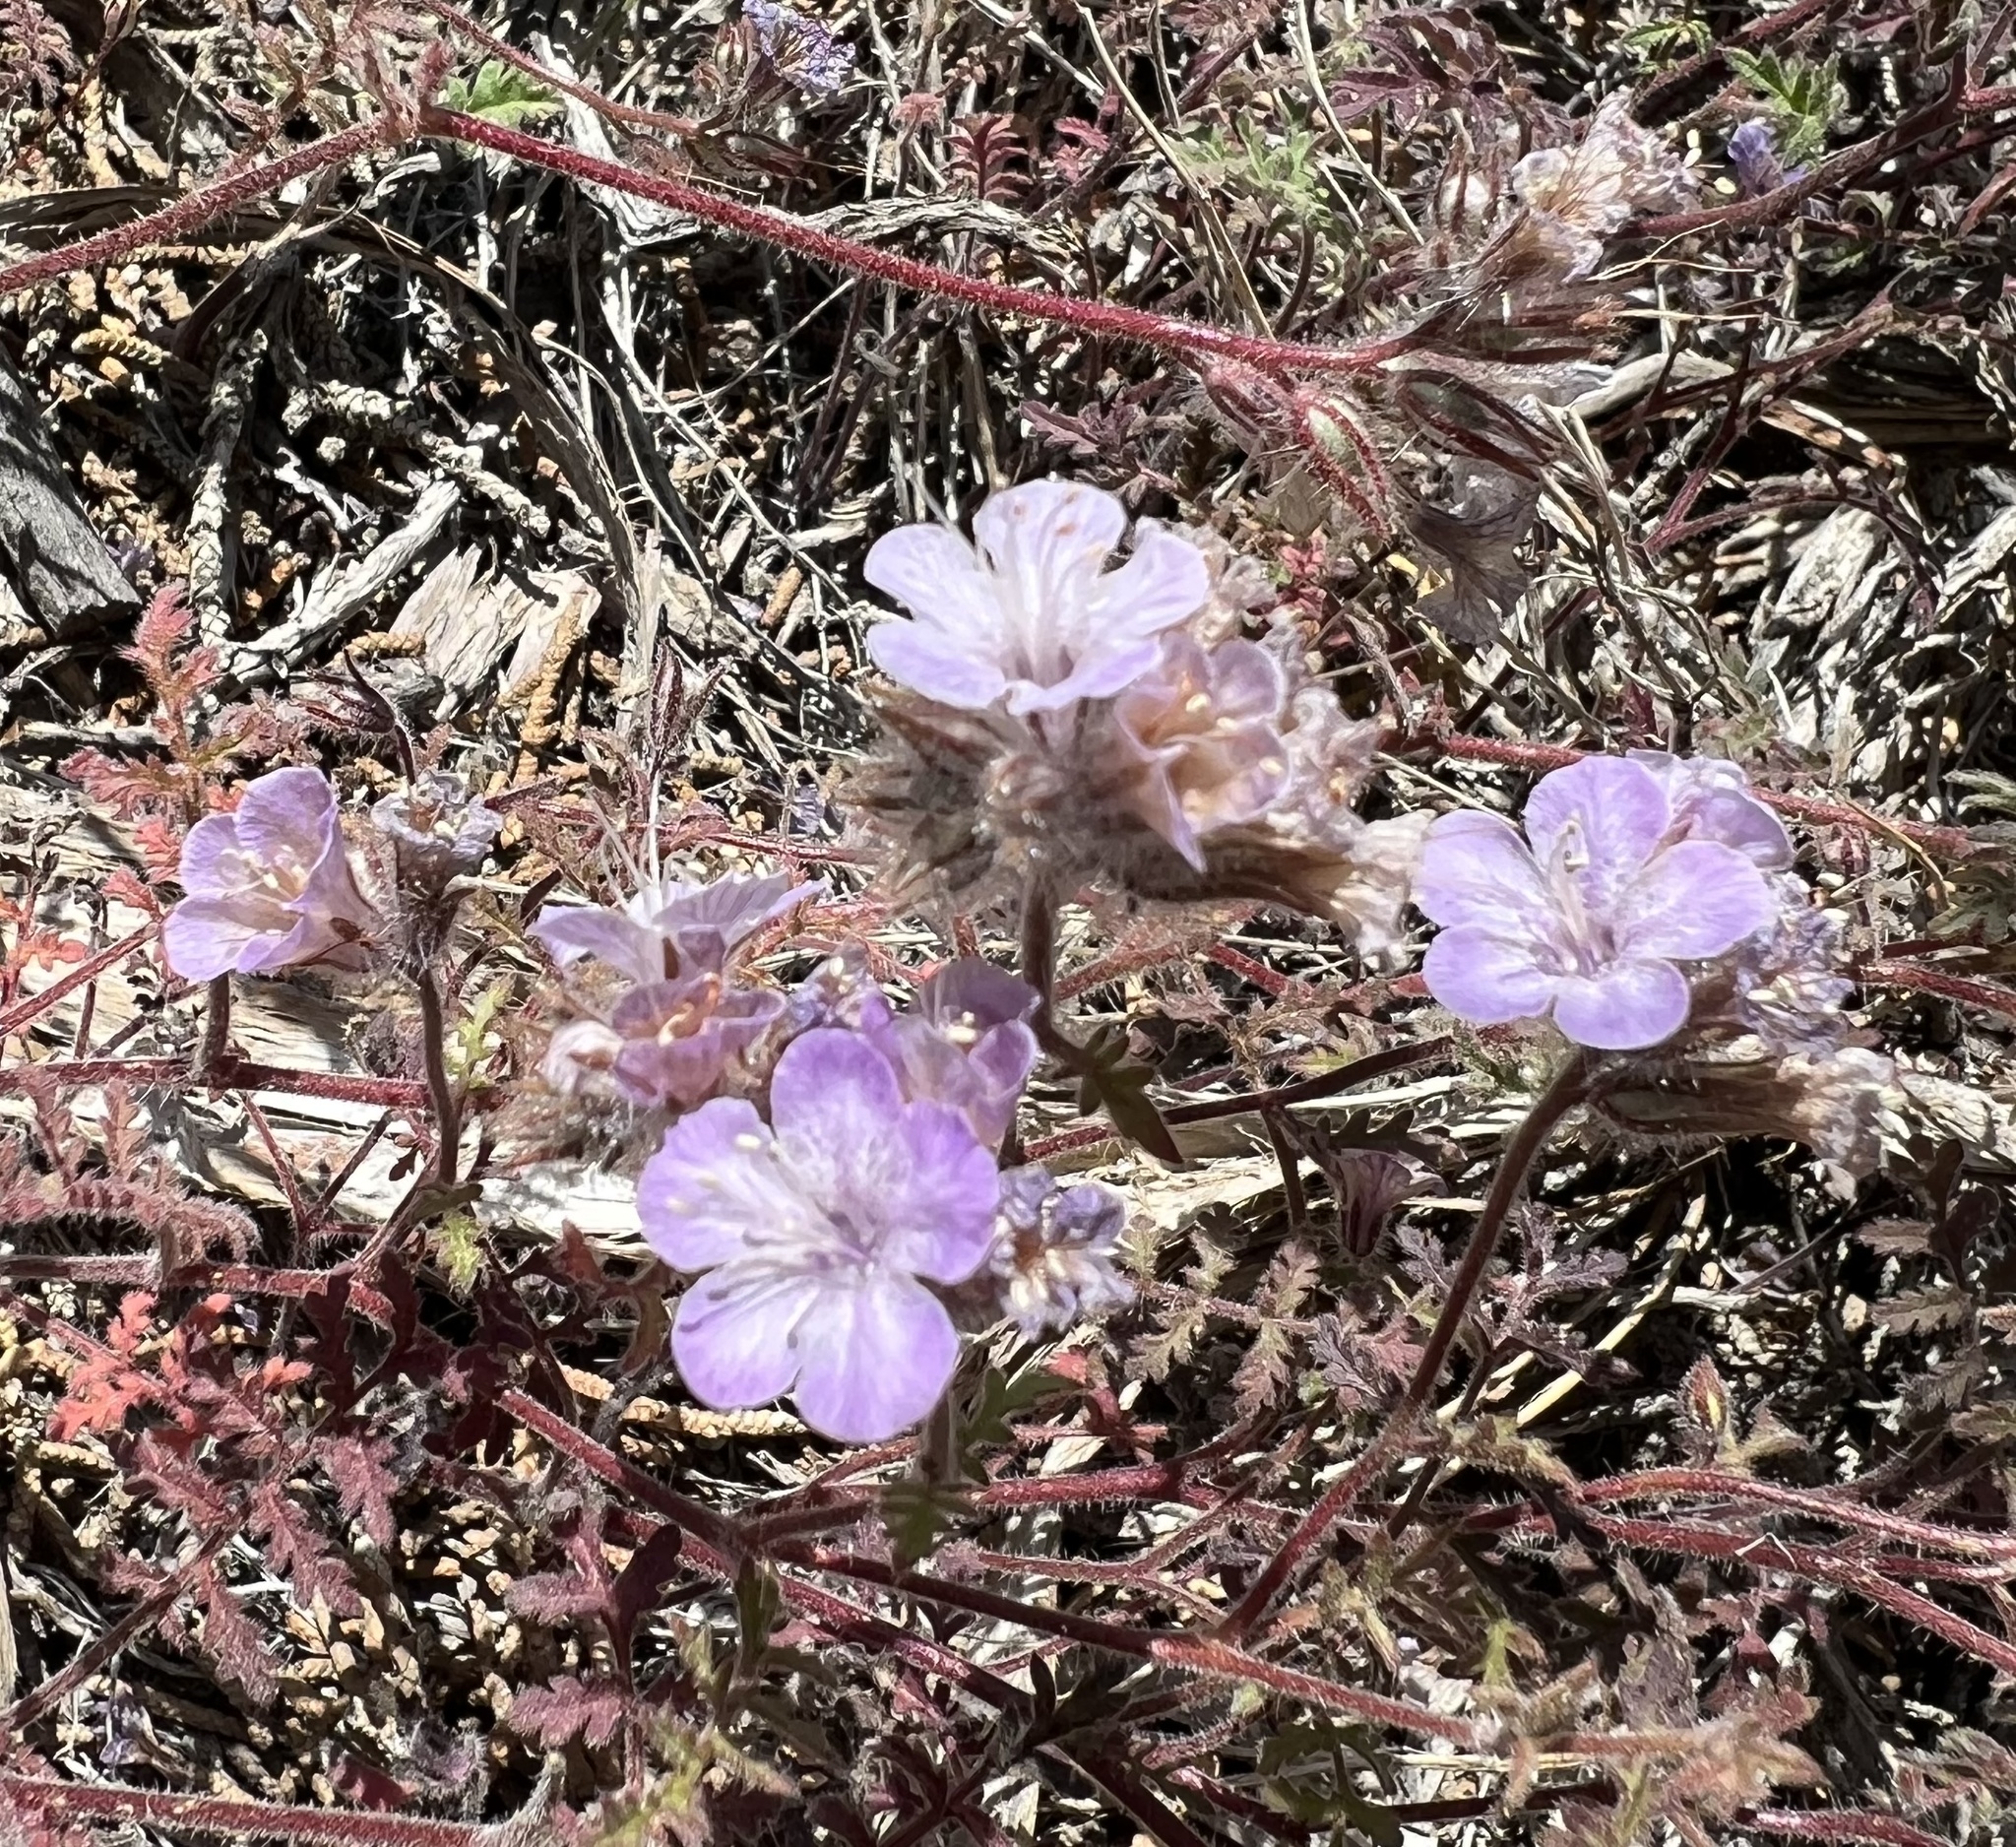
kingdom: Plantae
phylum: Tracheophyta
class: Magnoliopsida
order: Boraginales
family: Hydrophyllaceae
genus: Phacelia
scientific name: Phacelia vallis-mortae
